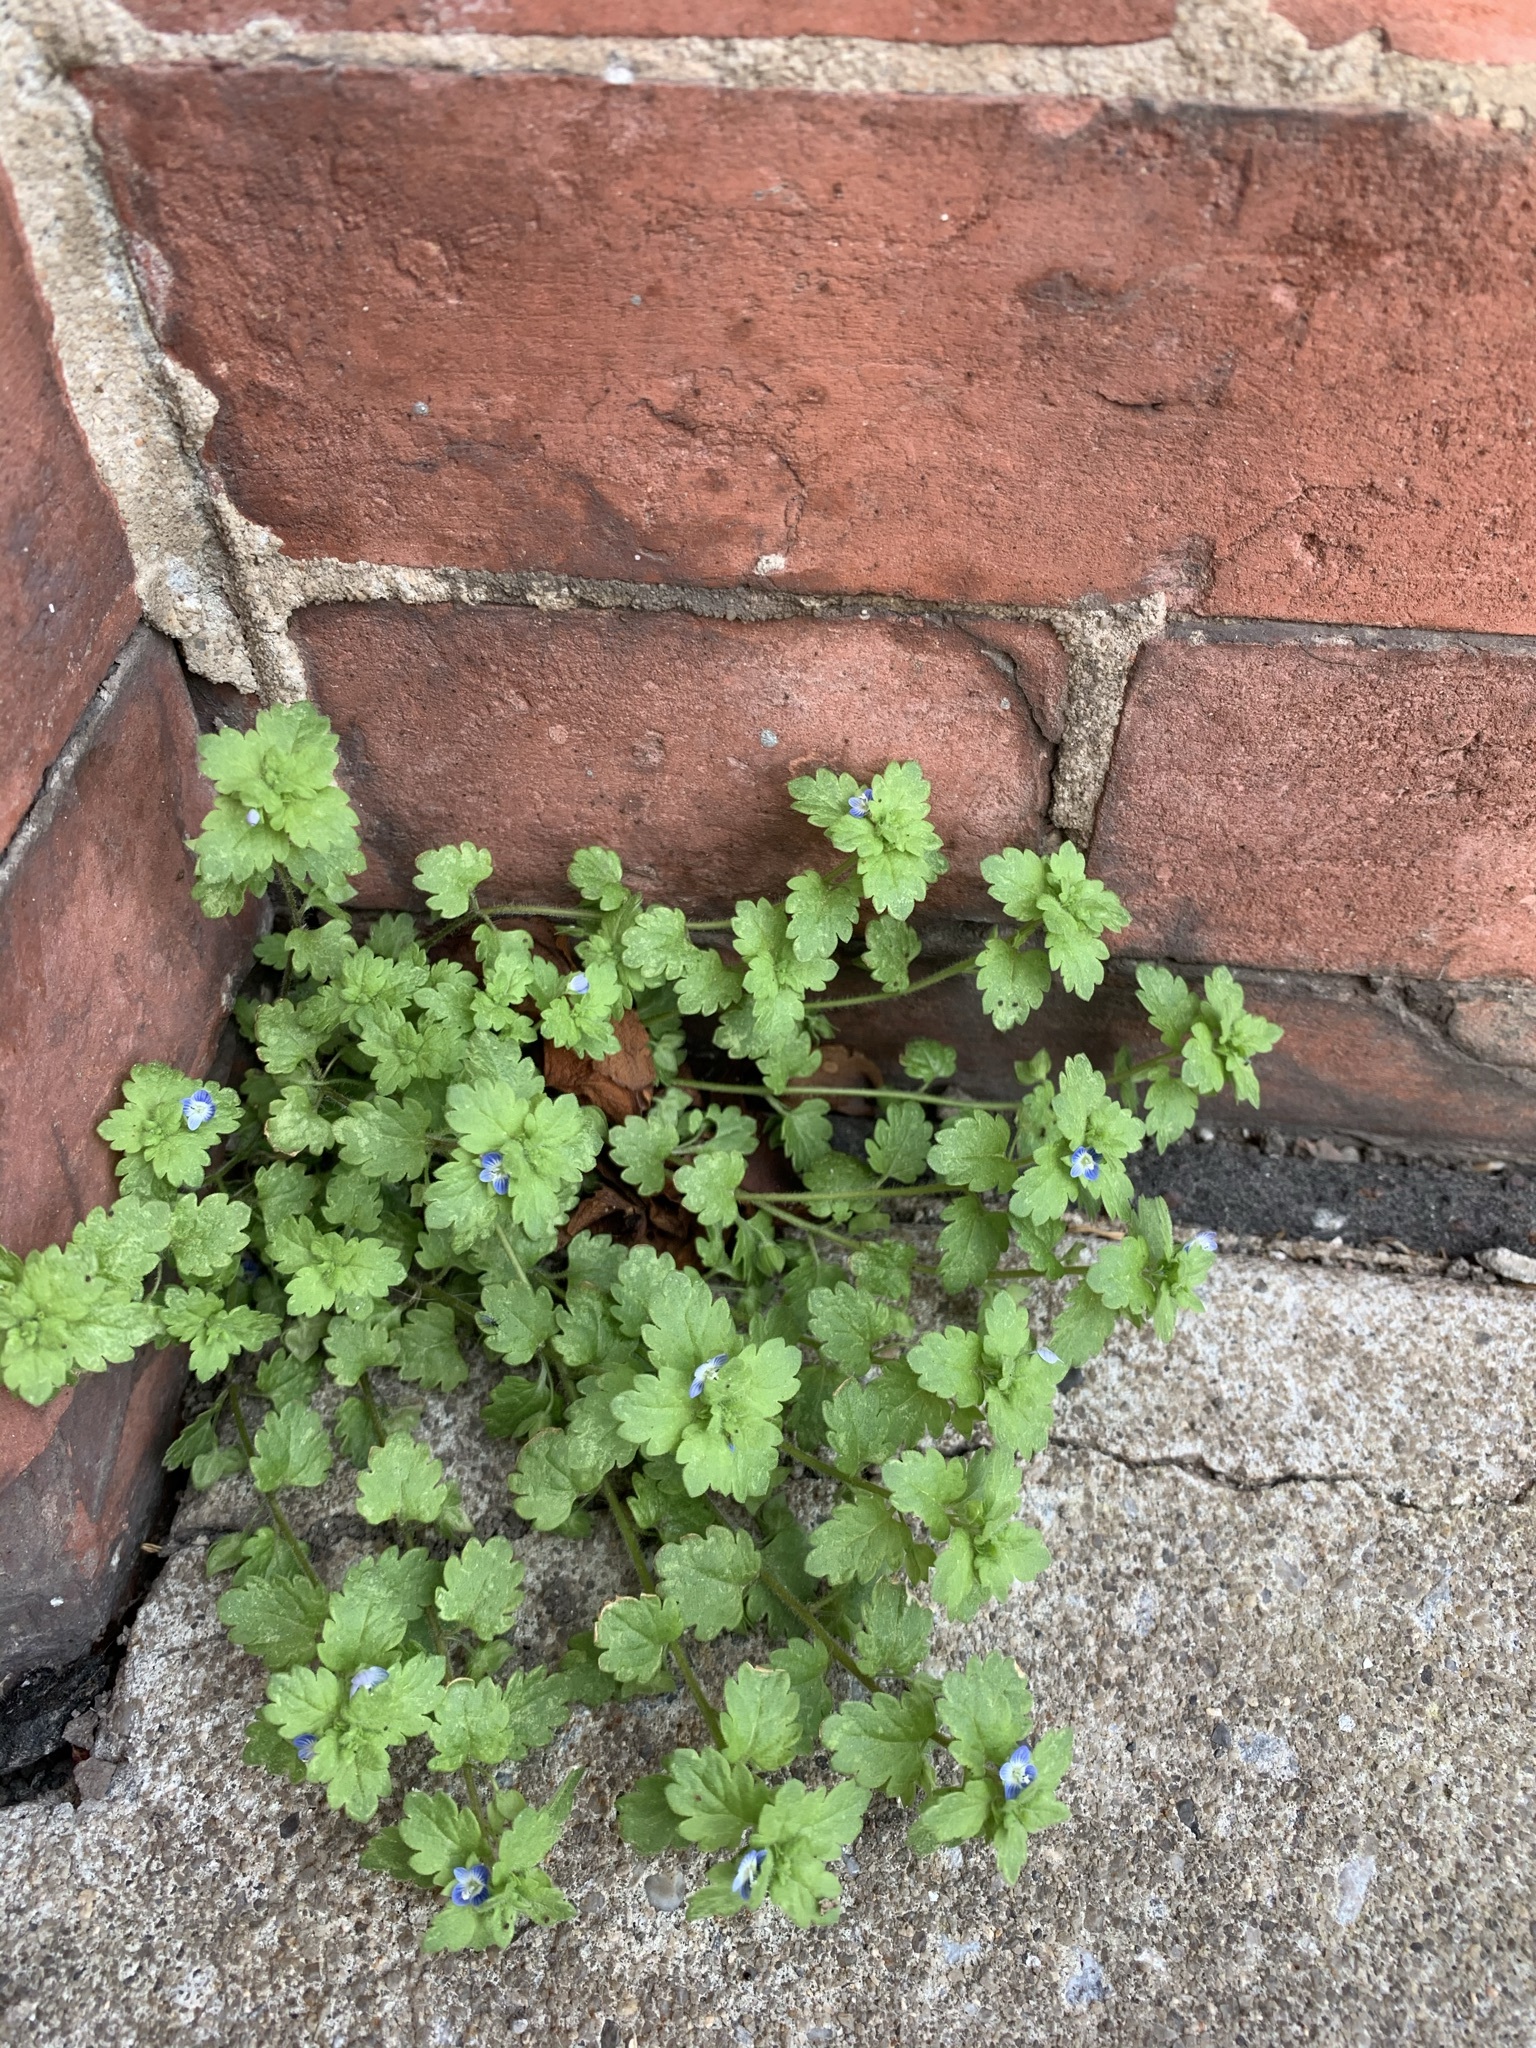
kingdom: Plantae
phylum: Tracheophyta
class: Magnoliopsida
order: Lamiales
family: Plantaginaceae
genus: Veronica
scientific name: Veronica persica
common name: Common field-speedwell
